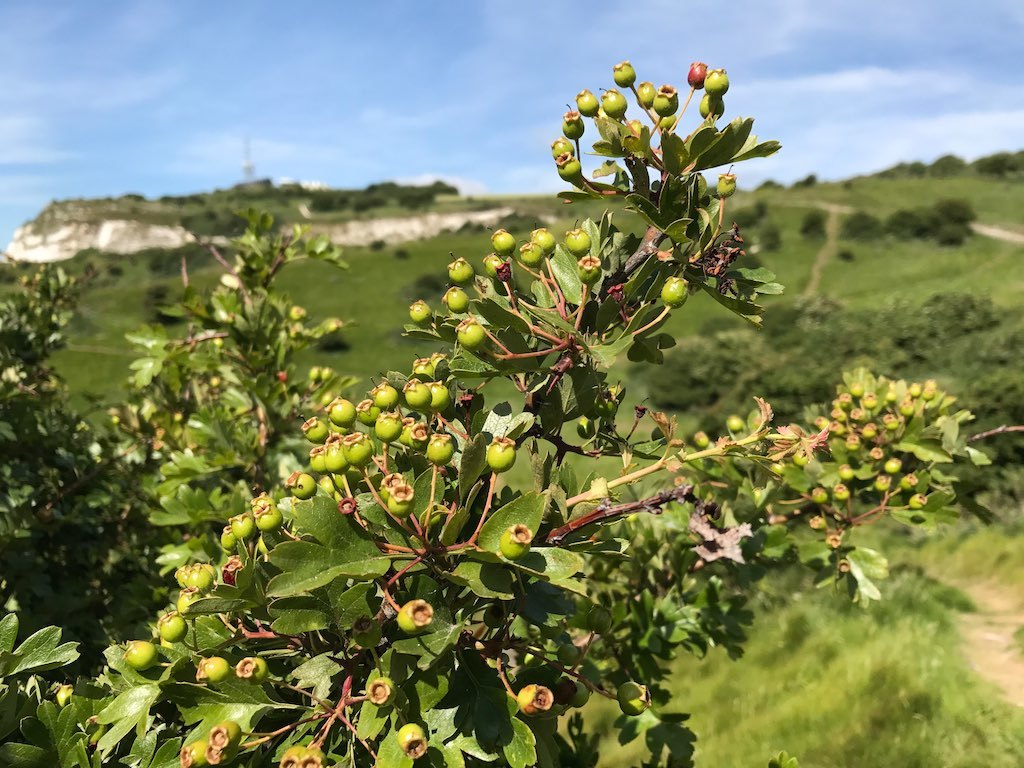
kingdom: Plantae
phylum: Tracheophyta
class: Magnoliopsida
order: Rosales
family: Rosaceae
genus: Crataegus
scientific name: Crataegus monogyna
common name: Hawthorn
